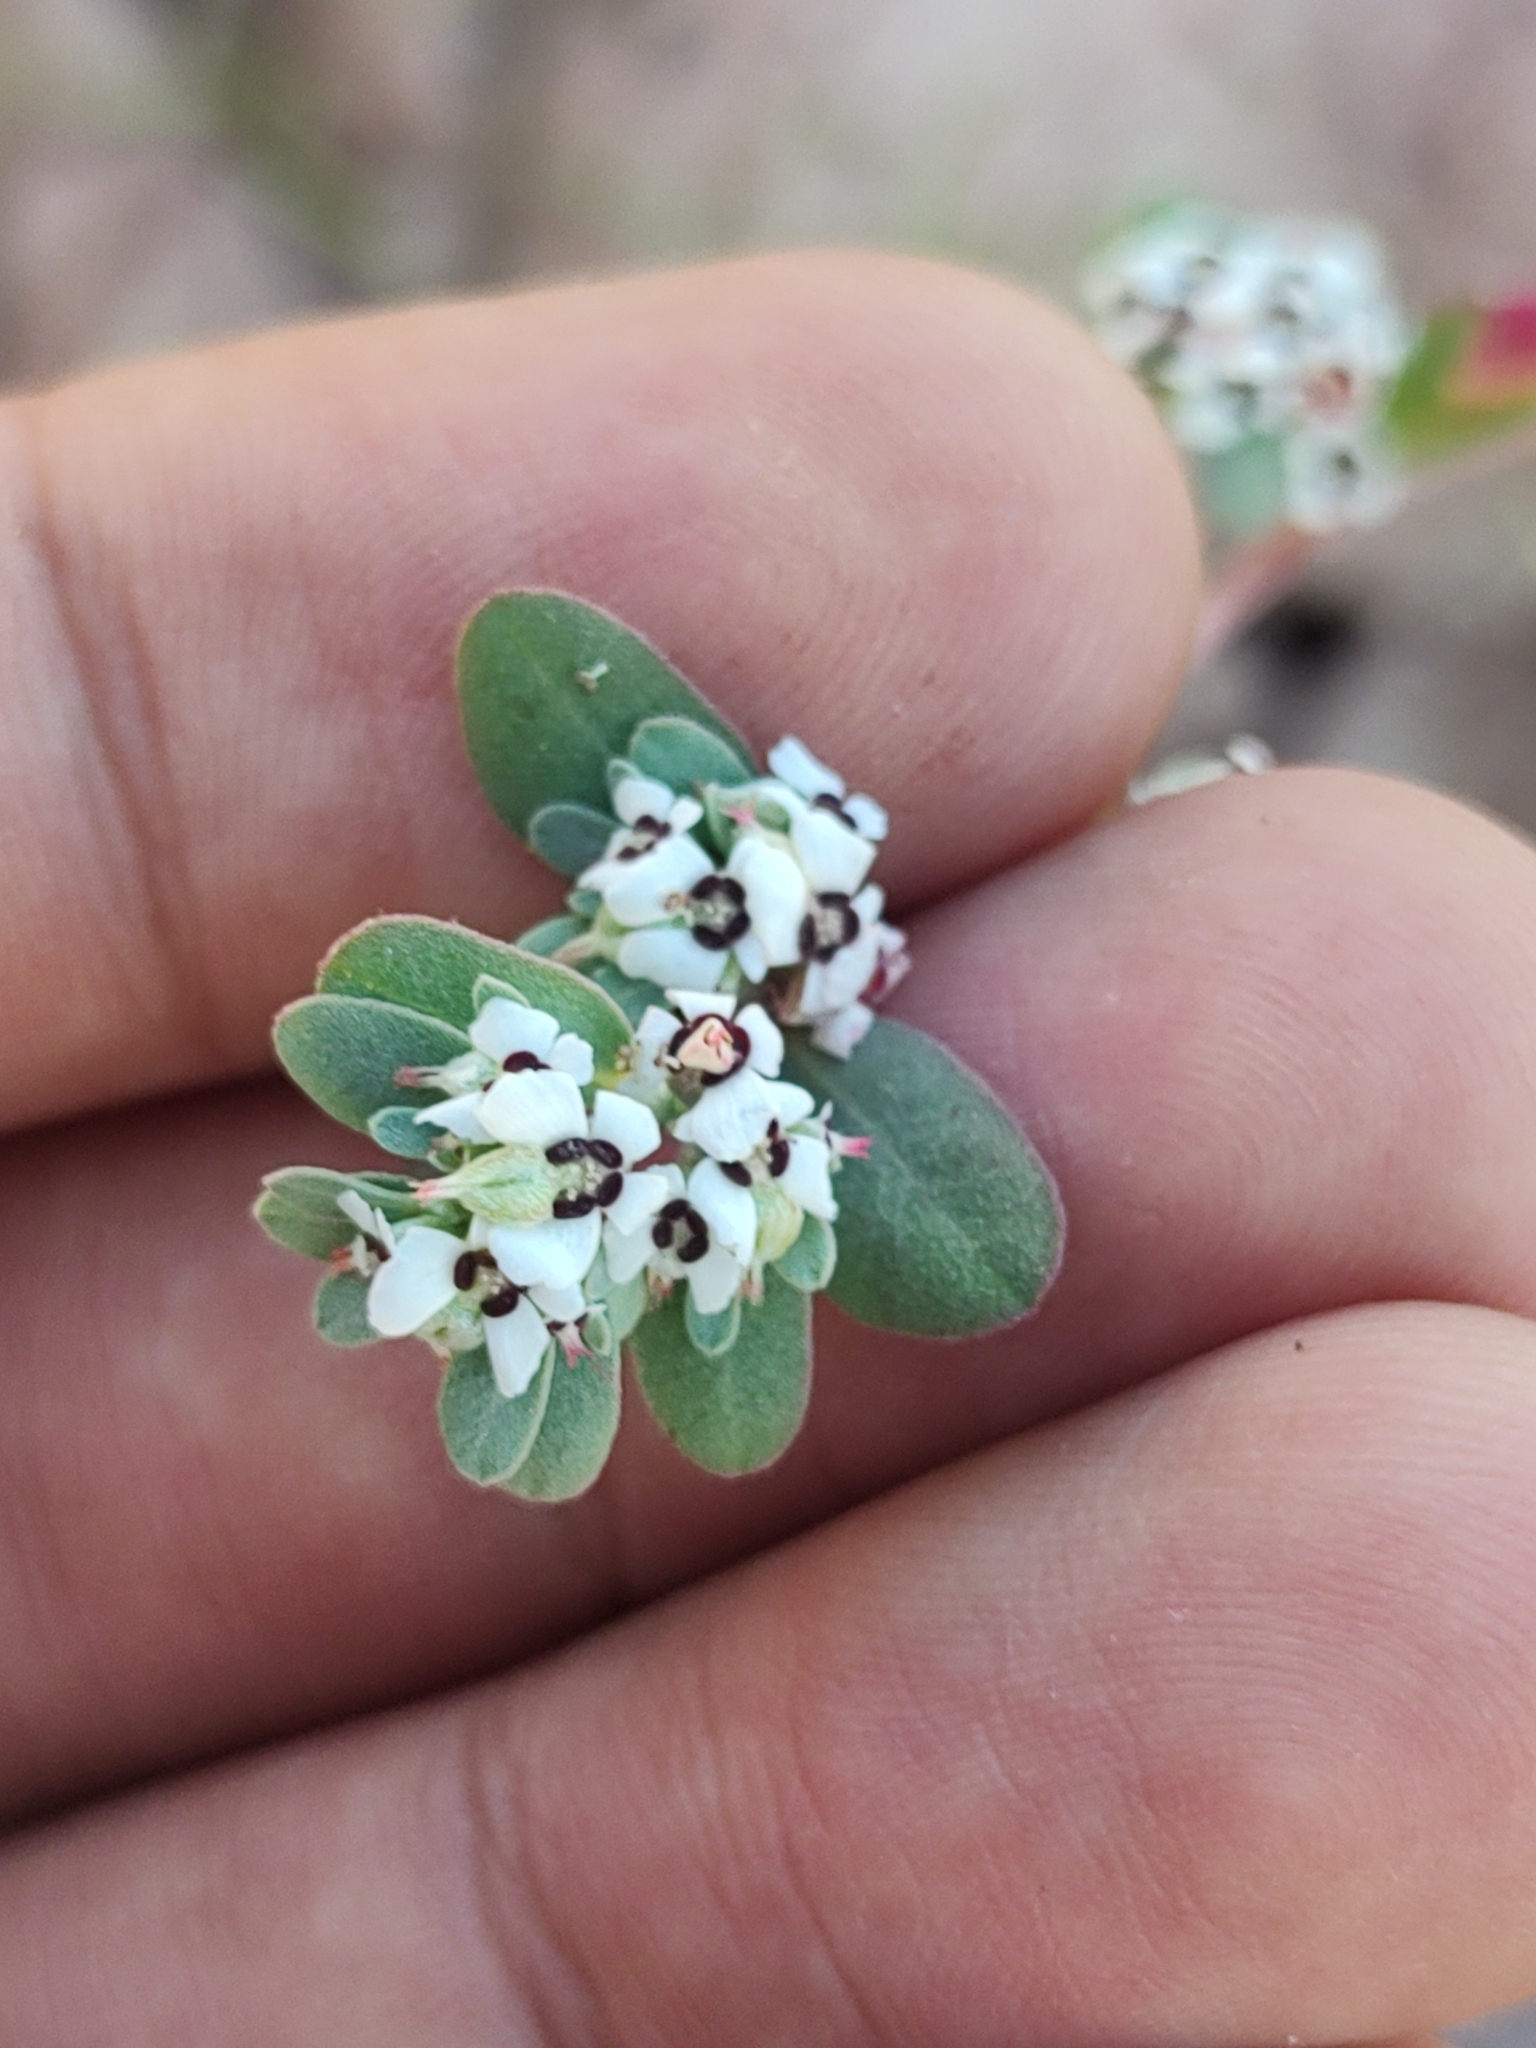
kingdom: Plantae
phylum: Tracheophyta
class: Magnoliopsida
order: Malpighiales
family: Euphorbiaceae
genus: Euphorbia
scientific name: Euphorbia pediculifera
